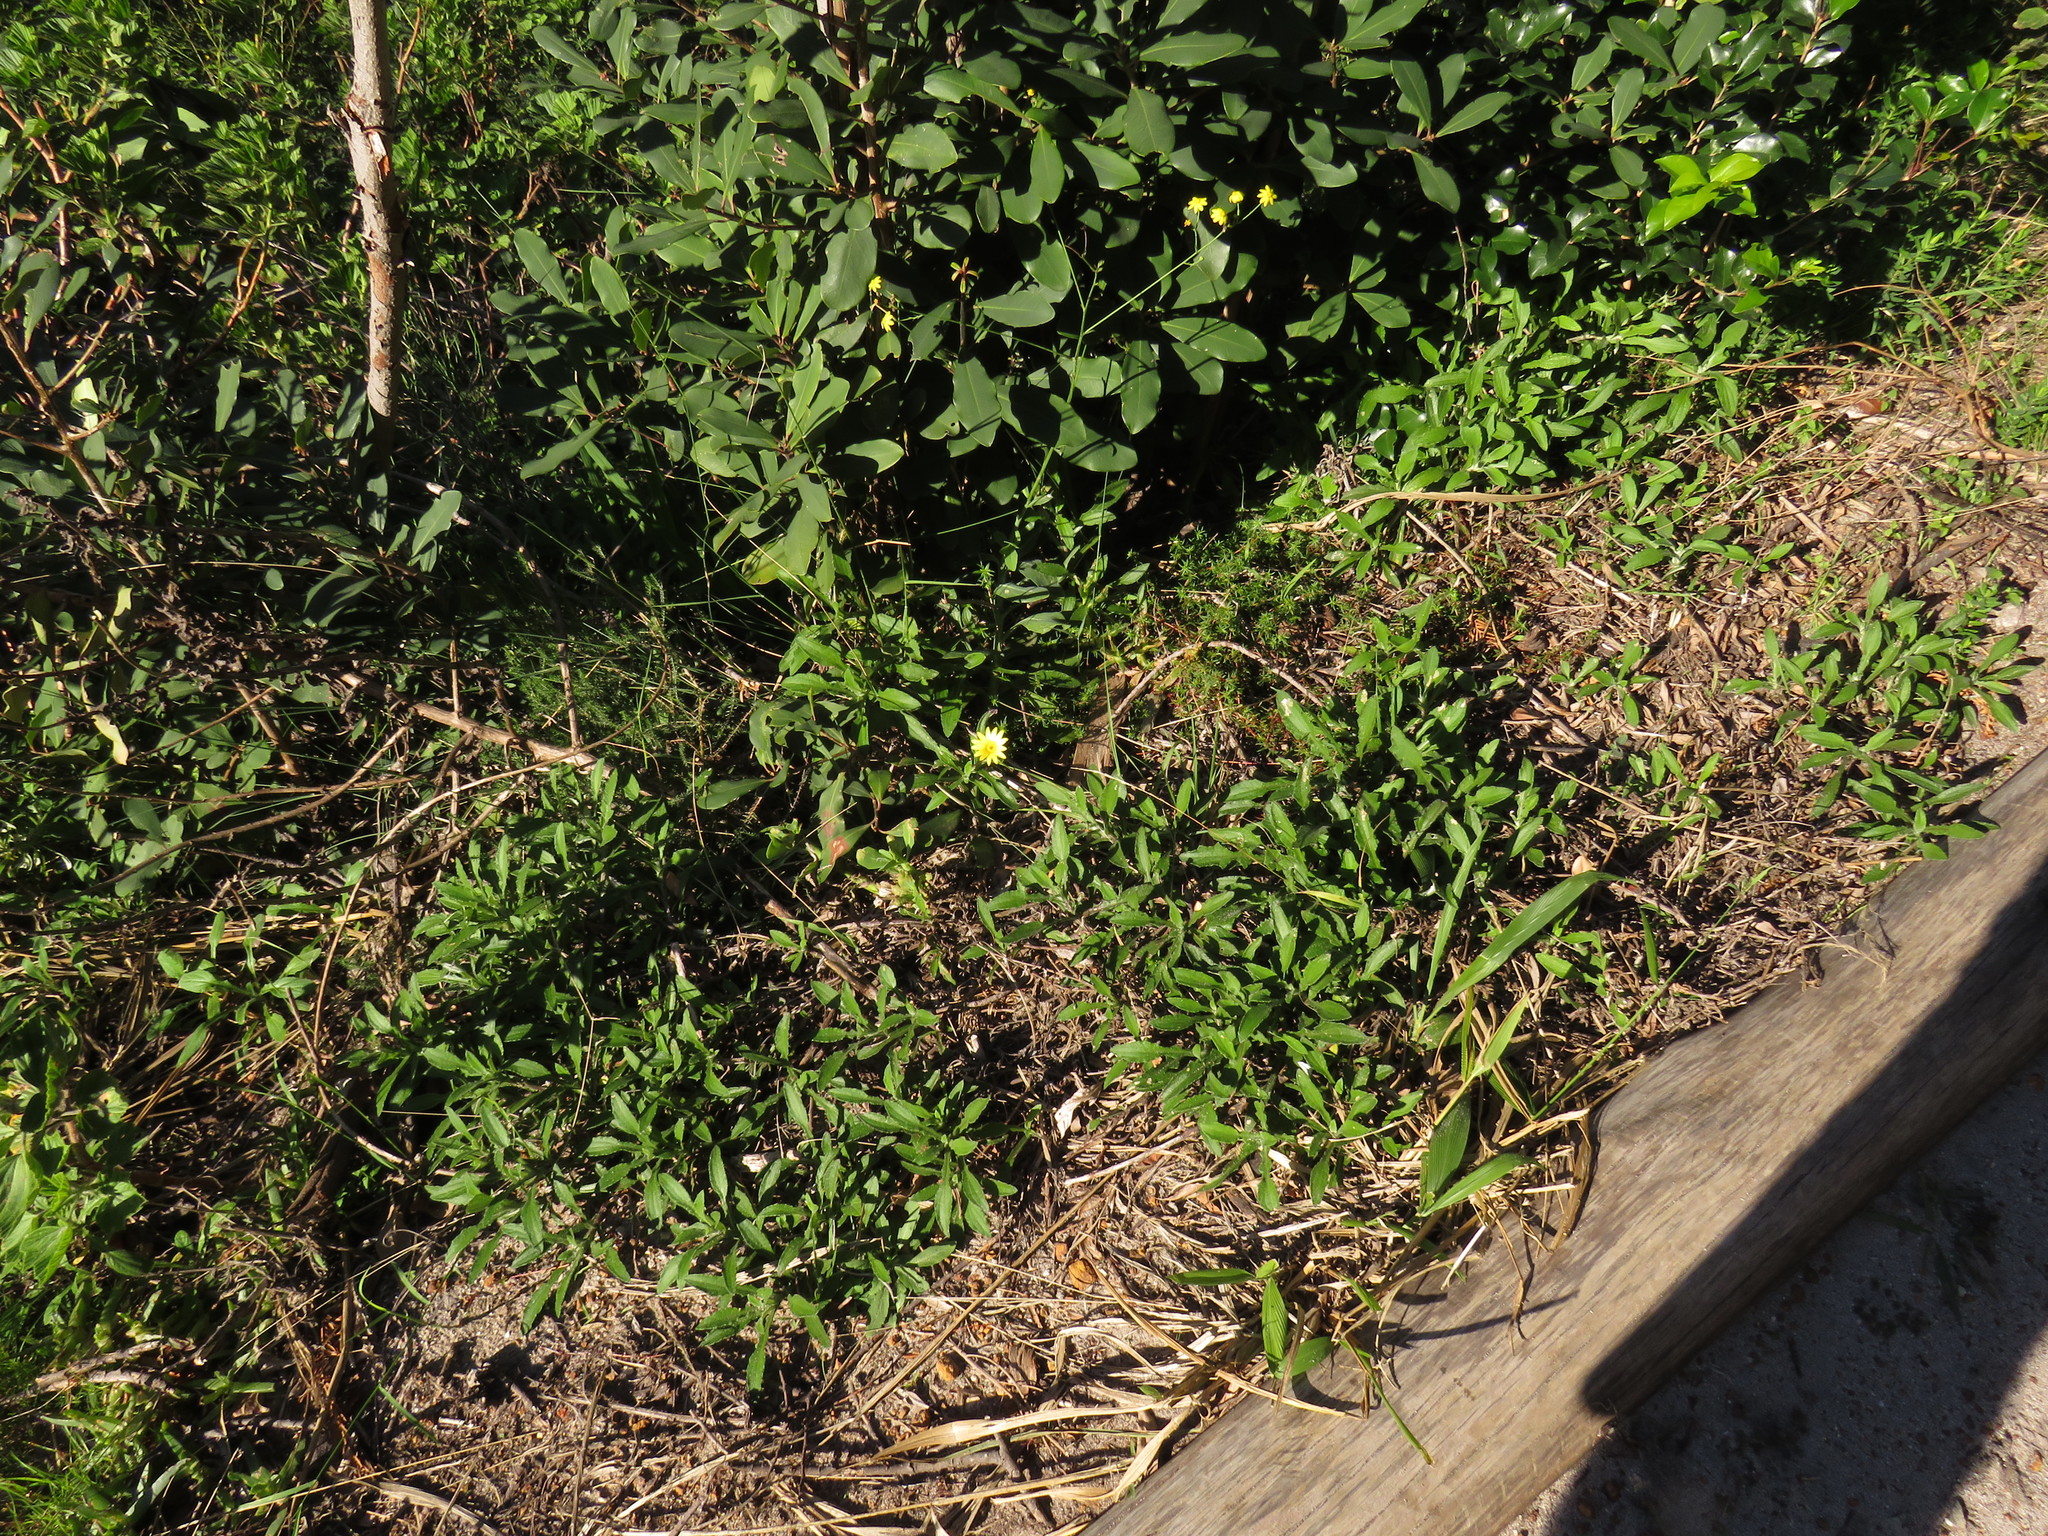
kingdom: Plantae
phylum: Tracheophyta
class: Magnoliopsida
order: Asterales
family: Asteraceae
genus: Arctotis
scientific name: Arctotis scabra
